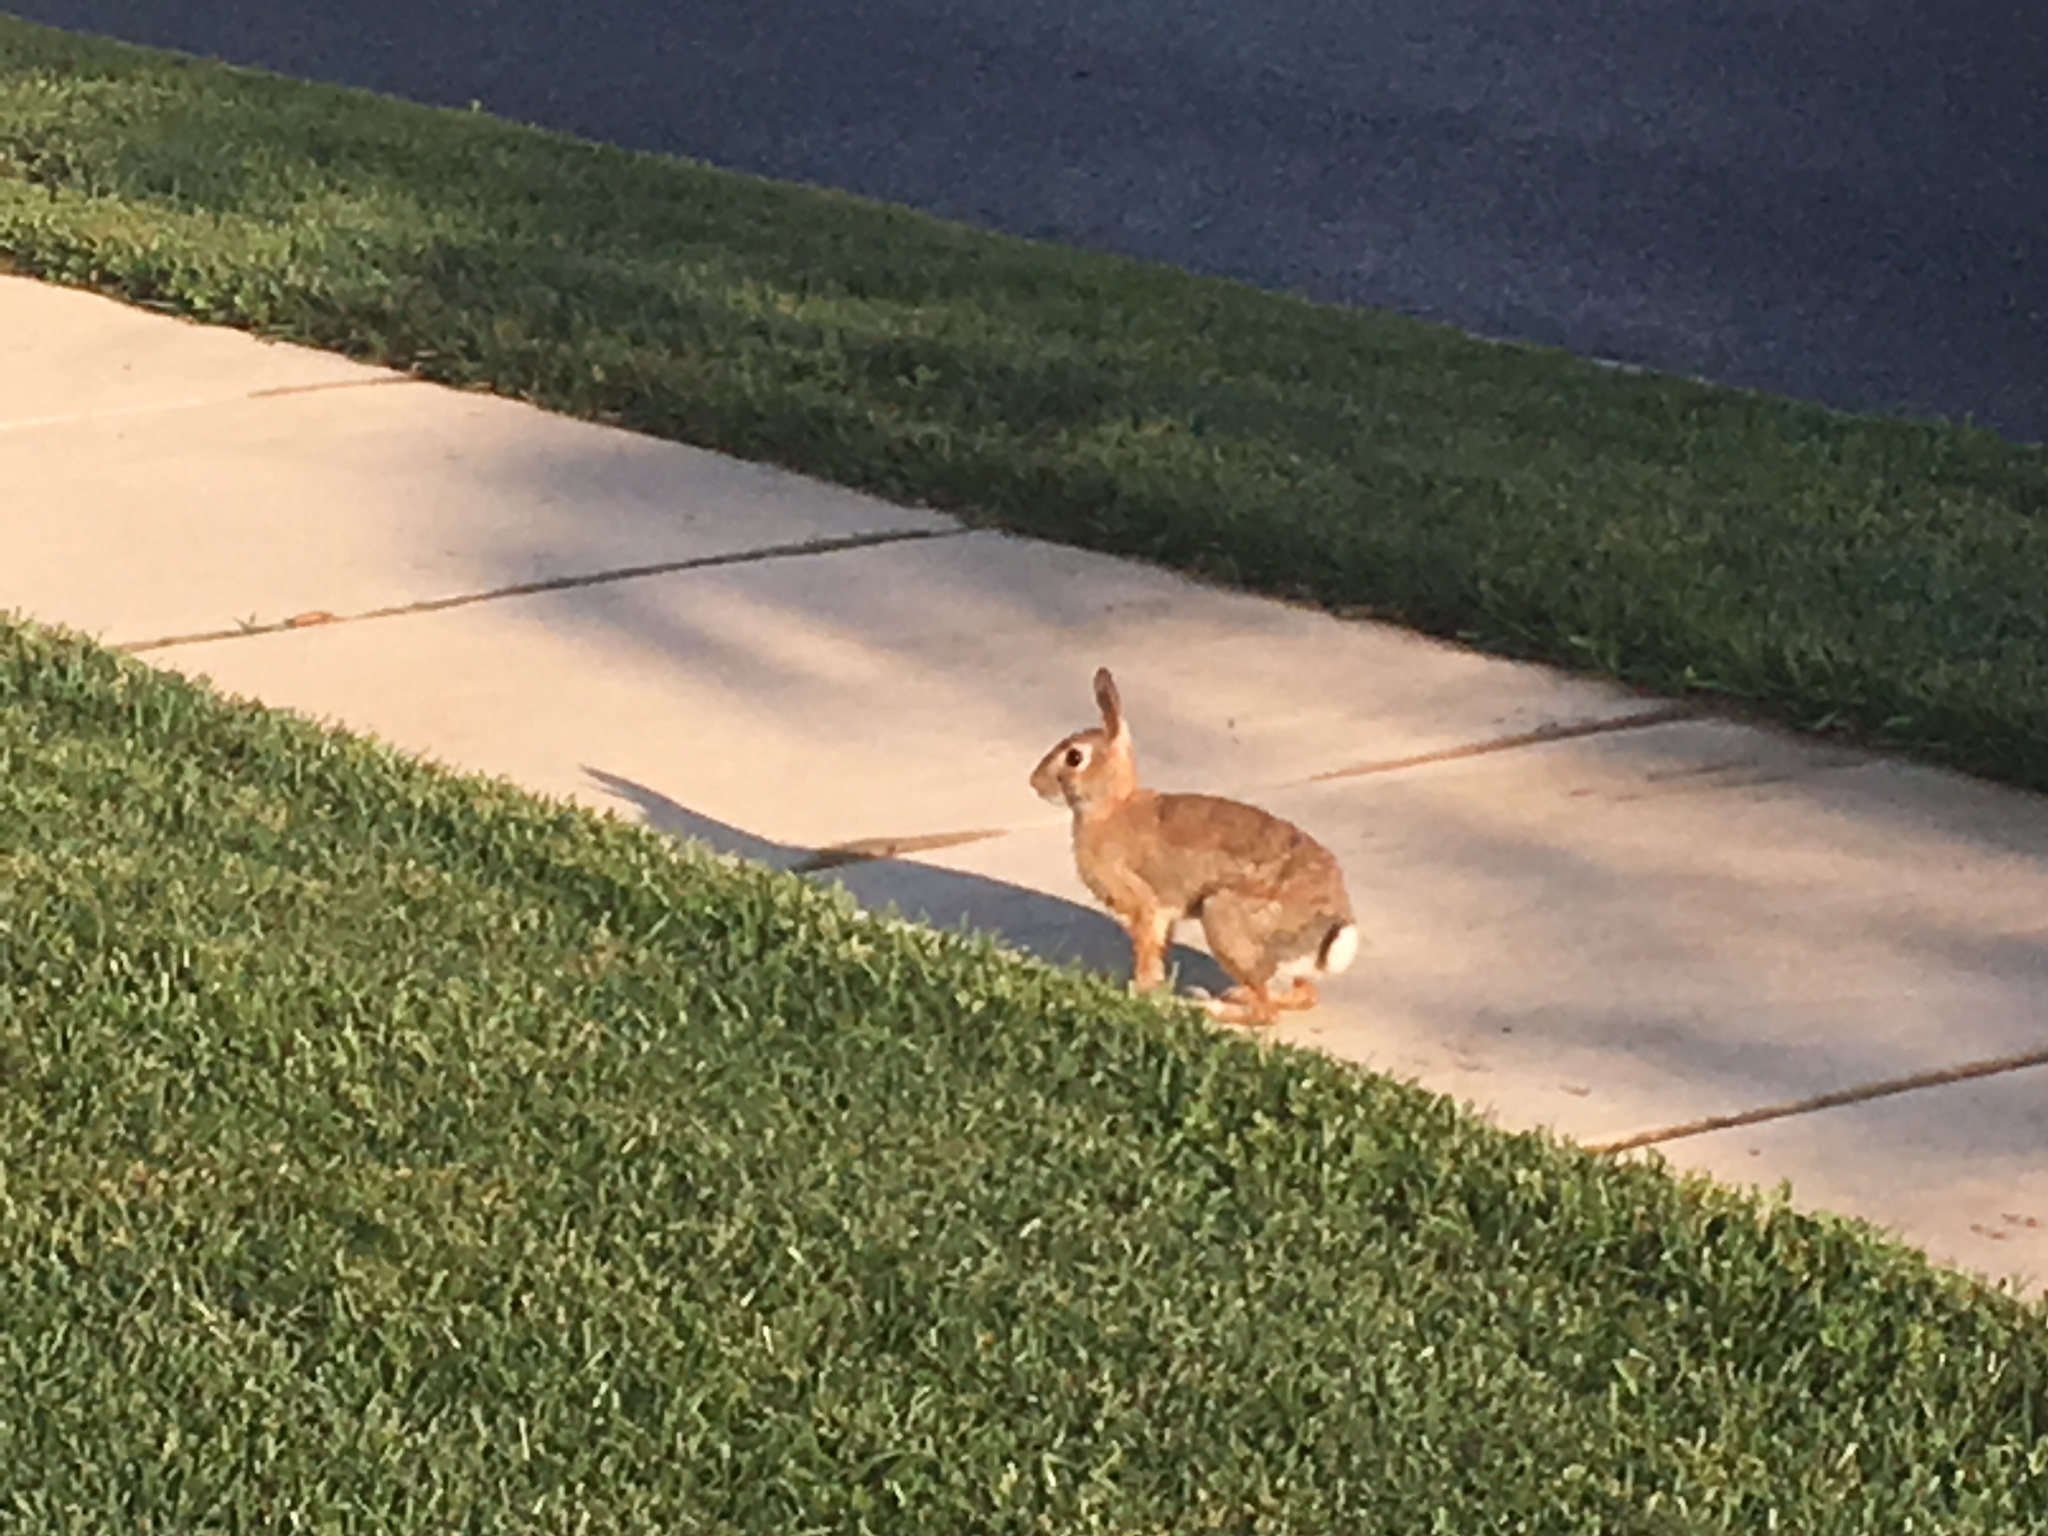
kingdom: Animalia
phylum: Chordata
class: Mammalia
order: Lagomorpha
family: Leporidae
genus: Sylvilagus
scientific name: Sylvilagus floridanus
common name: Eastern cottontail
